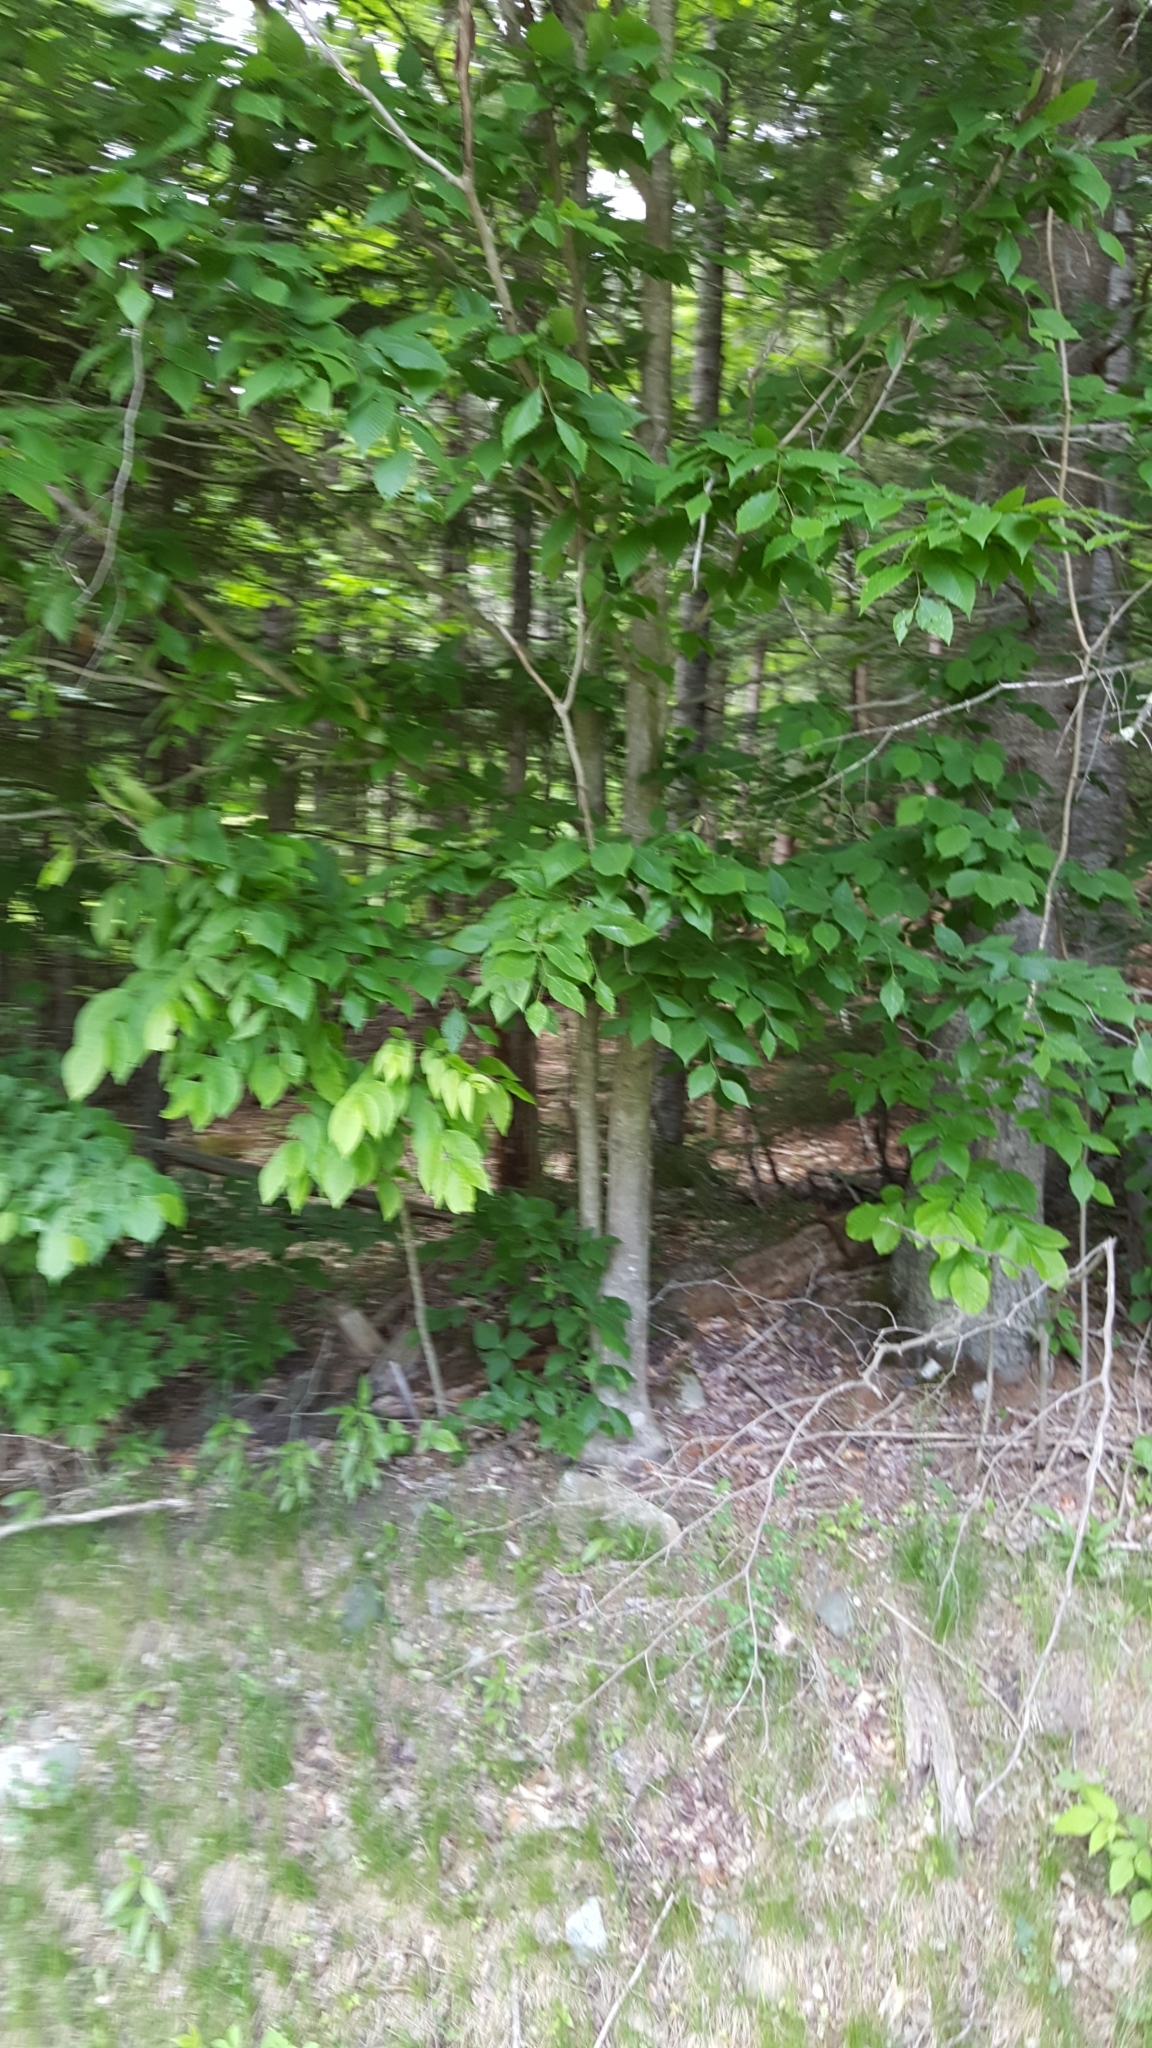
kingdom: Plantae
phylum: Tracheophyta
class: Magnoliopsida
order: Fagales
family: Fagaceae
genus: Fagus
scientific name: Fagus grandifolia
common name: American beech
